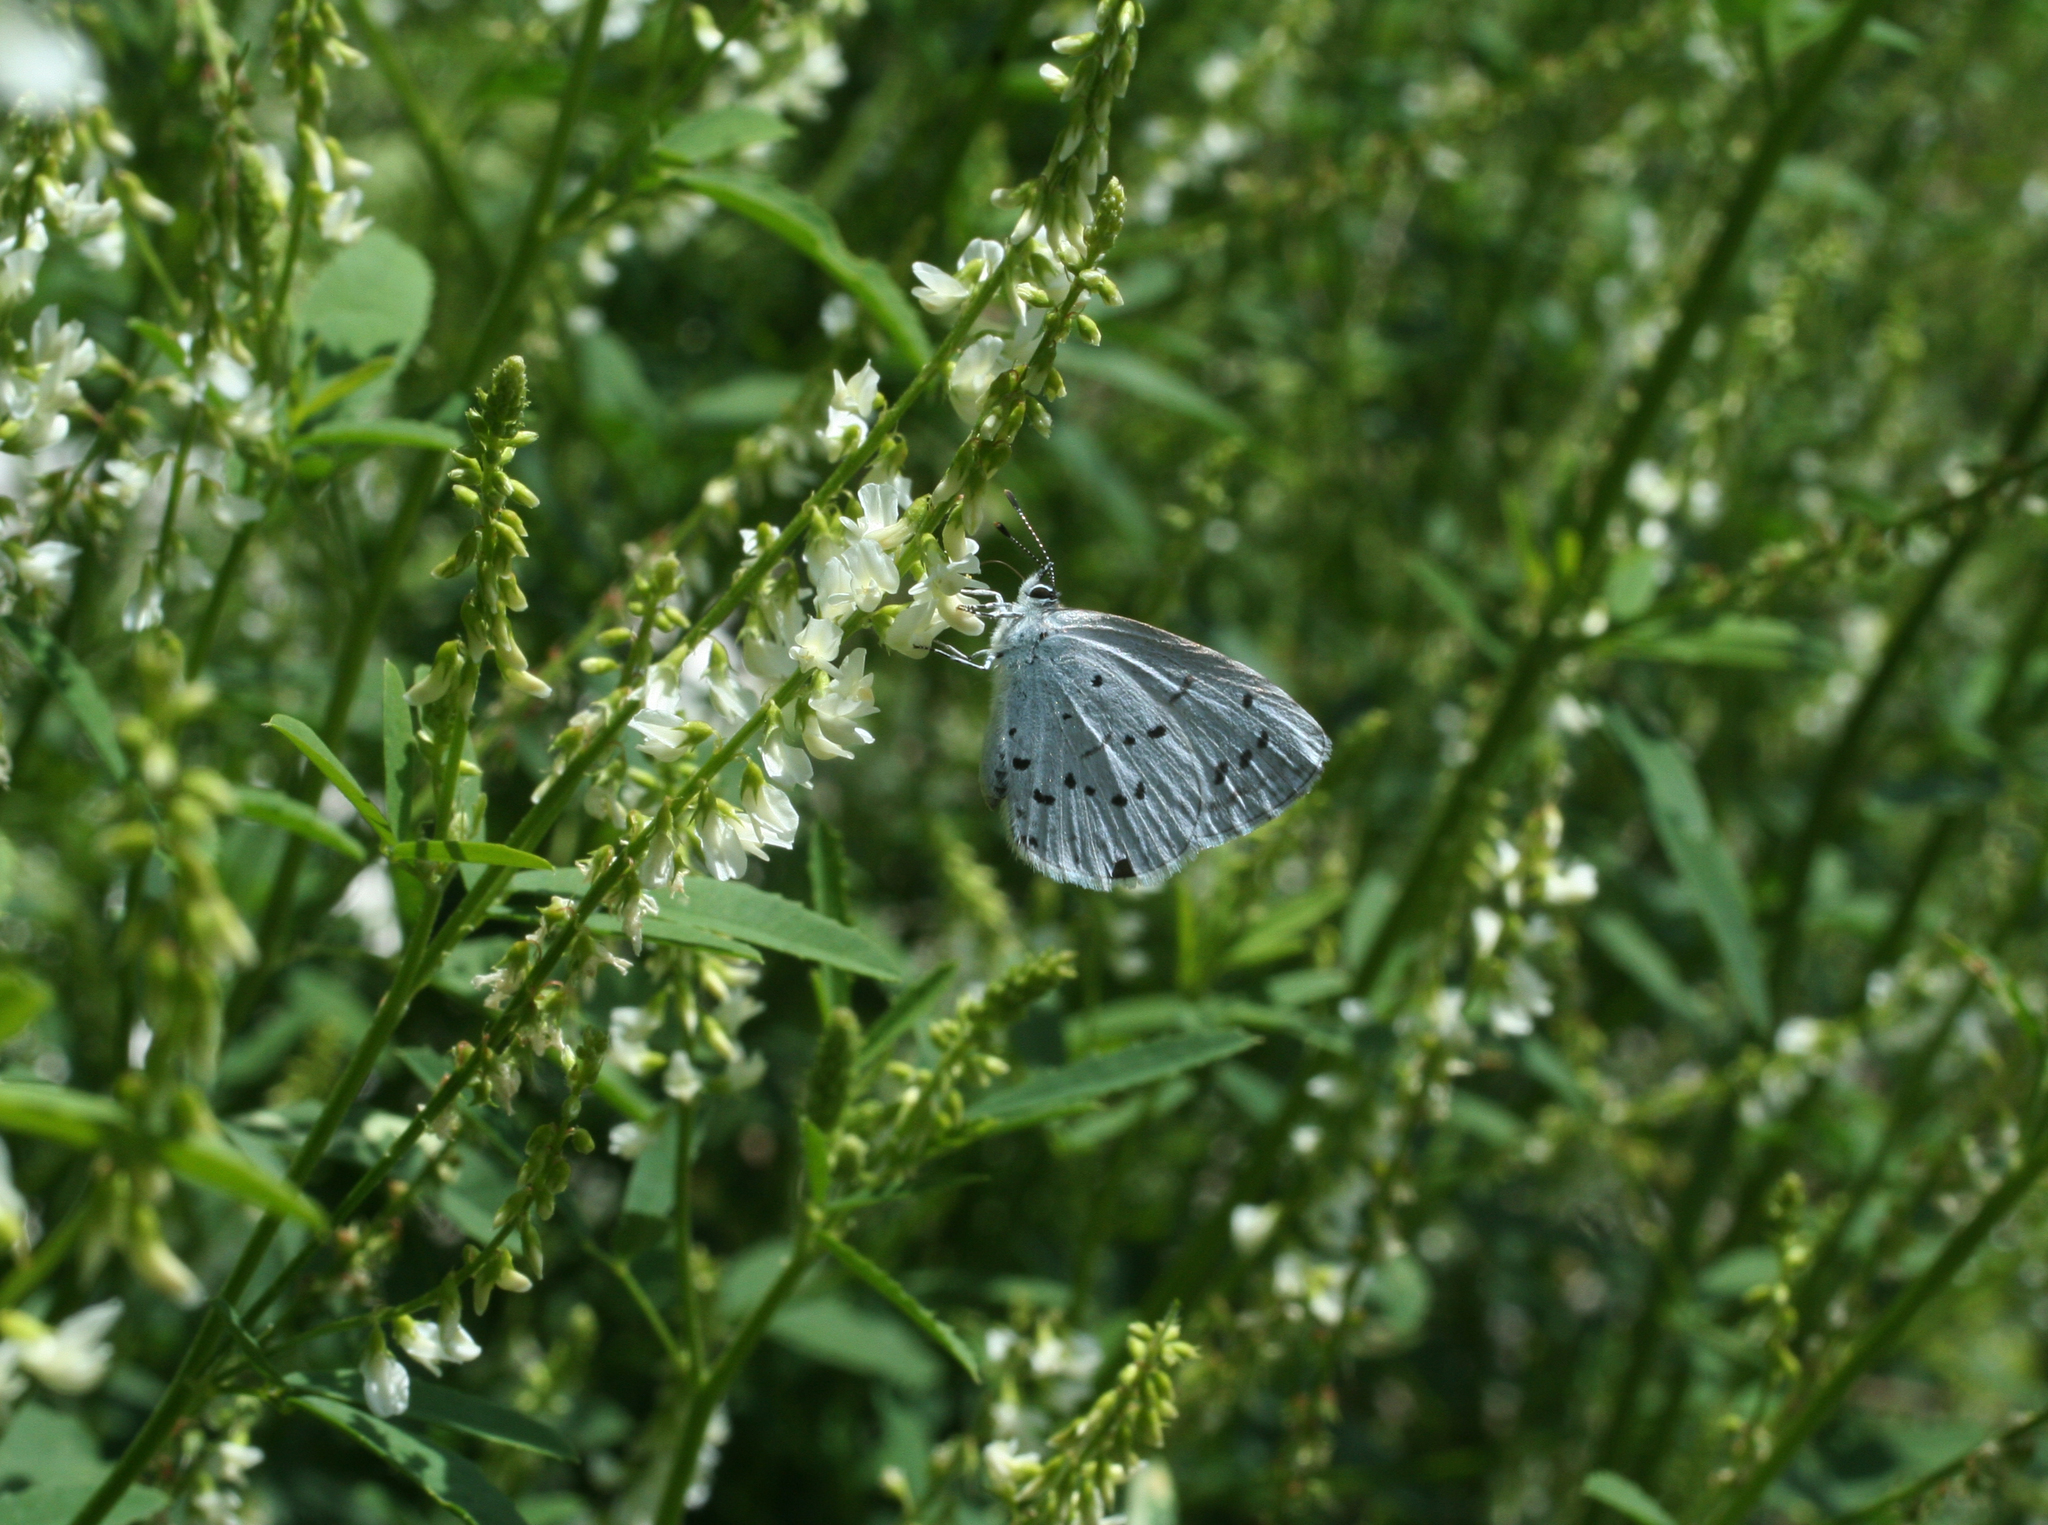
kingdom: Plantae
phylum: Tracheophyta
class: Magnoliopsida
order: Fabales
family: Fabaceae
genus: Melilotus
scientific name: Melilotus albus
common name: White melilot
